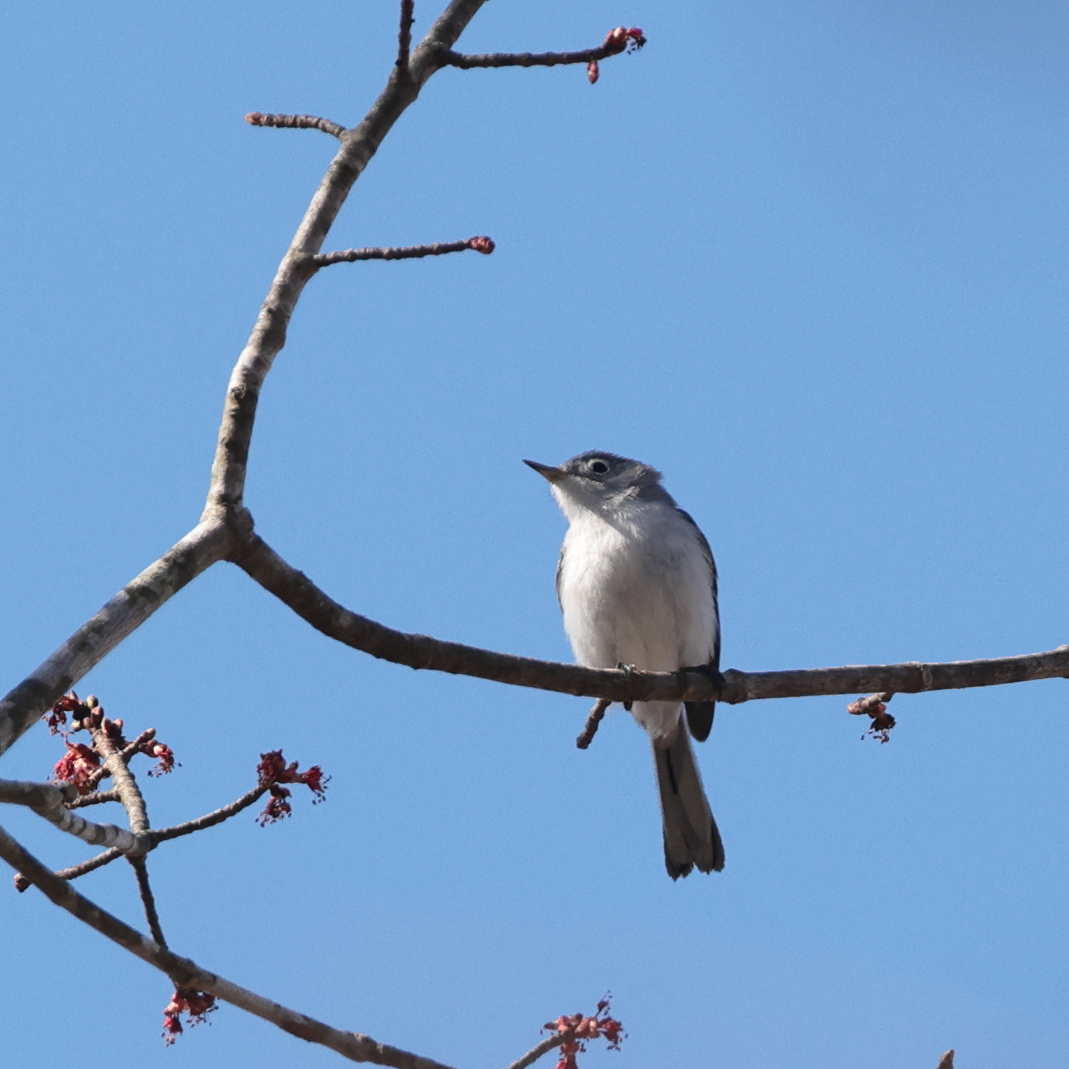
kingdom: Animalia
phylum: Chordata
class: Aves
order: Passeriformes
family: Polioptilidae
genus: Polioptila
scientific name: Polioptila caerulea
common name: Blue-gray gnatcatcher
